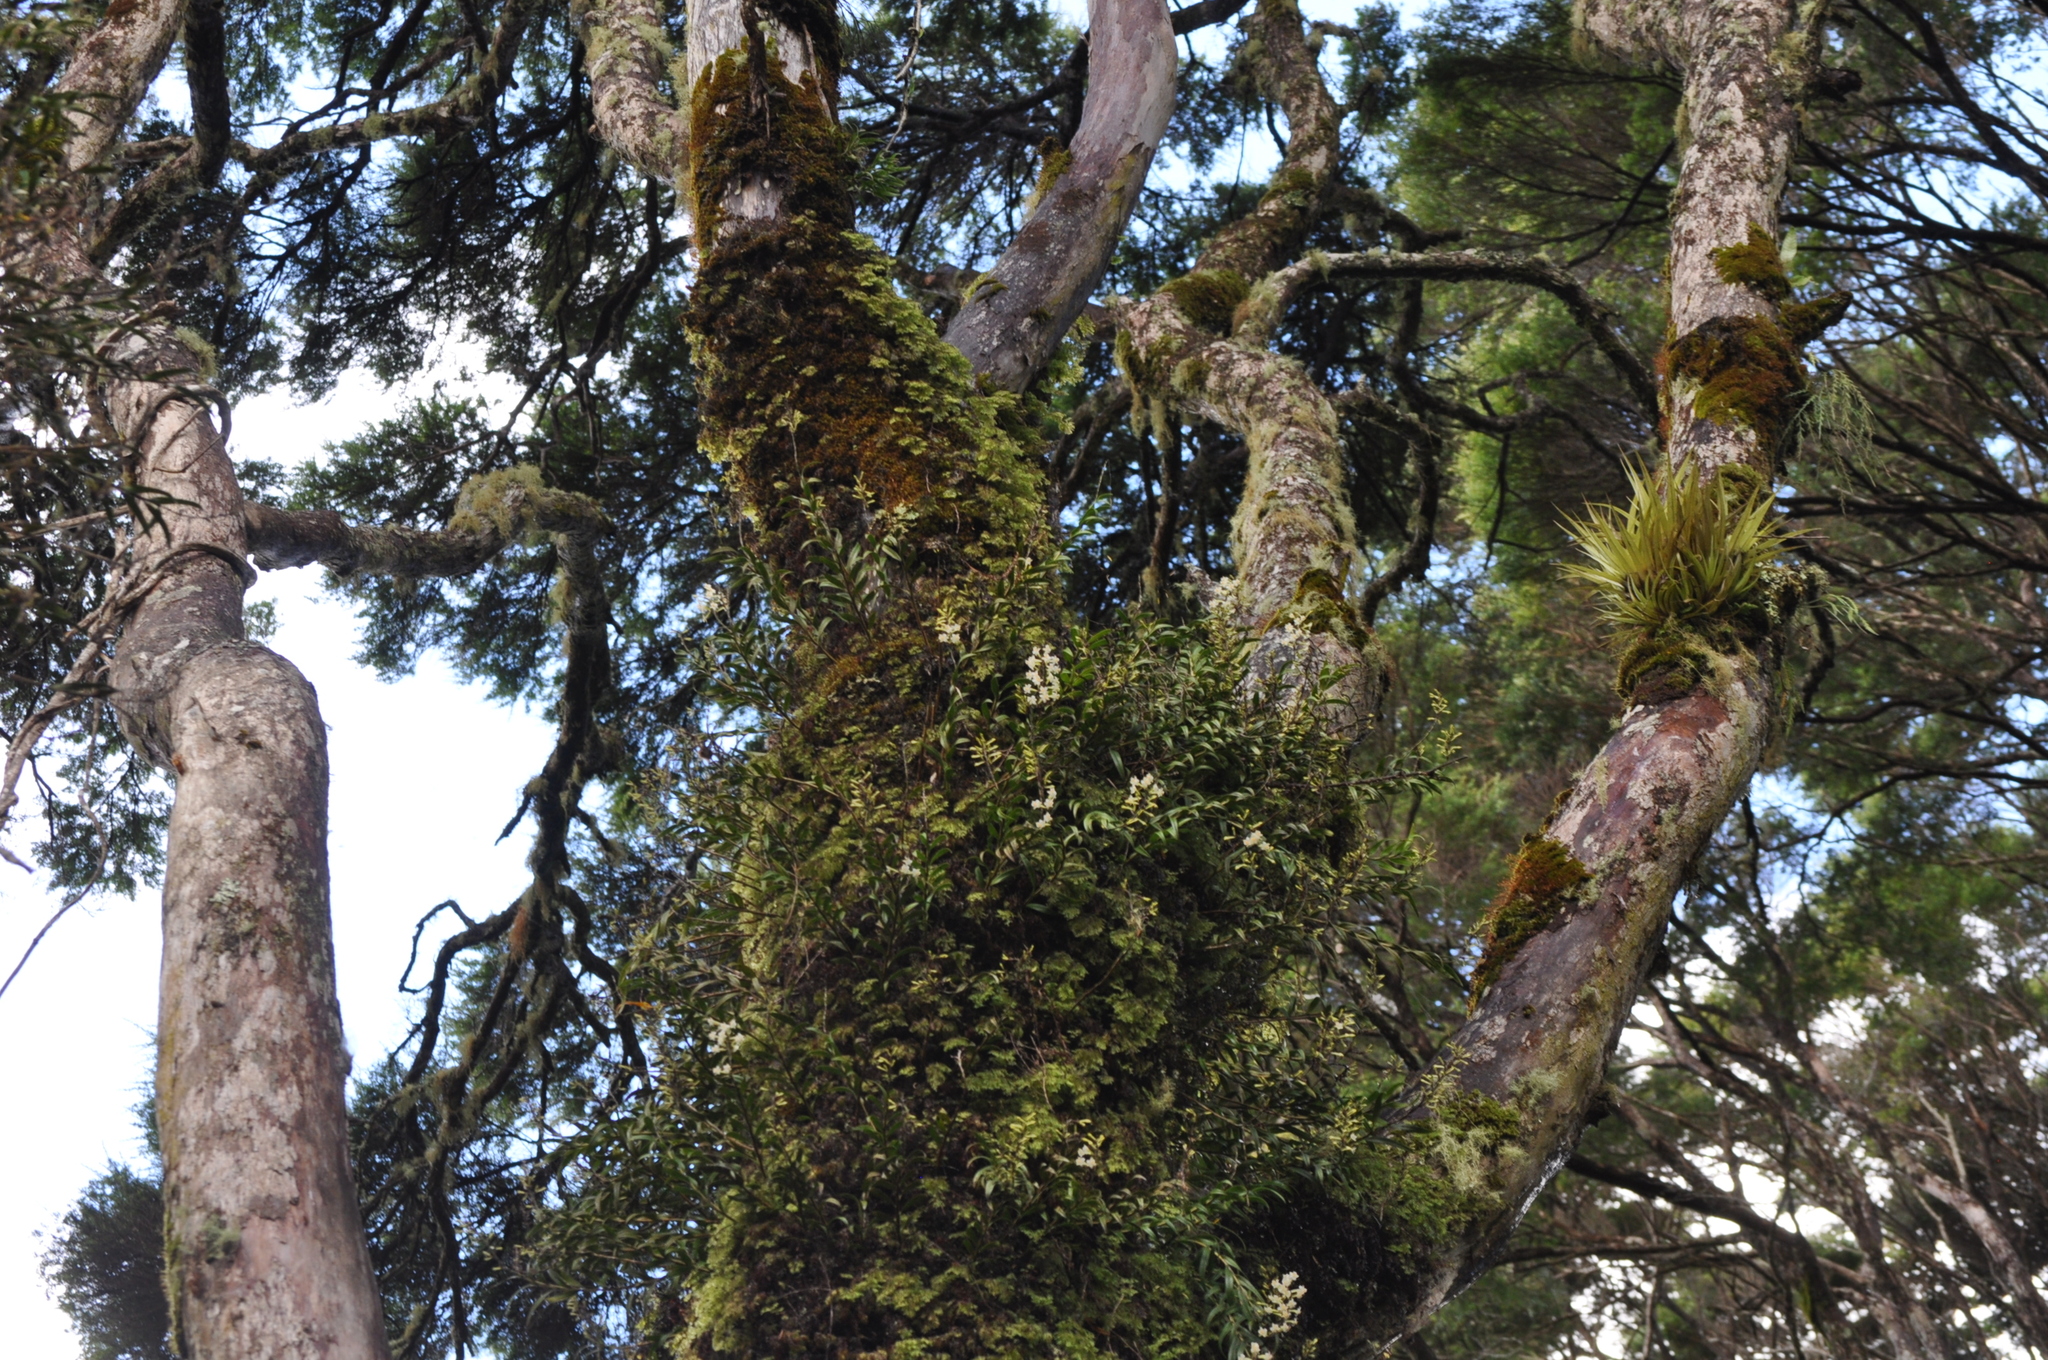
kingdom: Plantae
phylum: Tracheophyta
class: Liliopsida
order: Asparagales
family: Orchidaceae
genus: Earina
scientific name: Earina autumnalis
